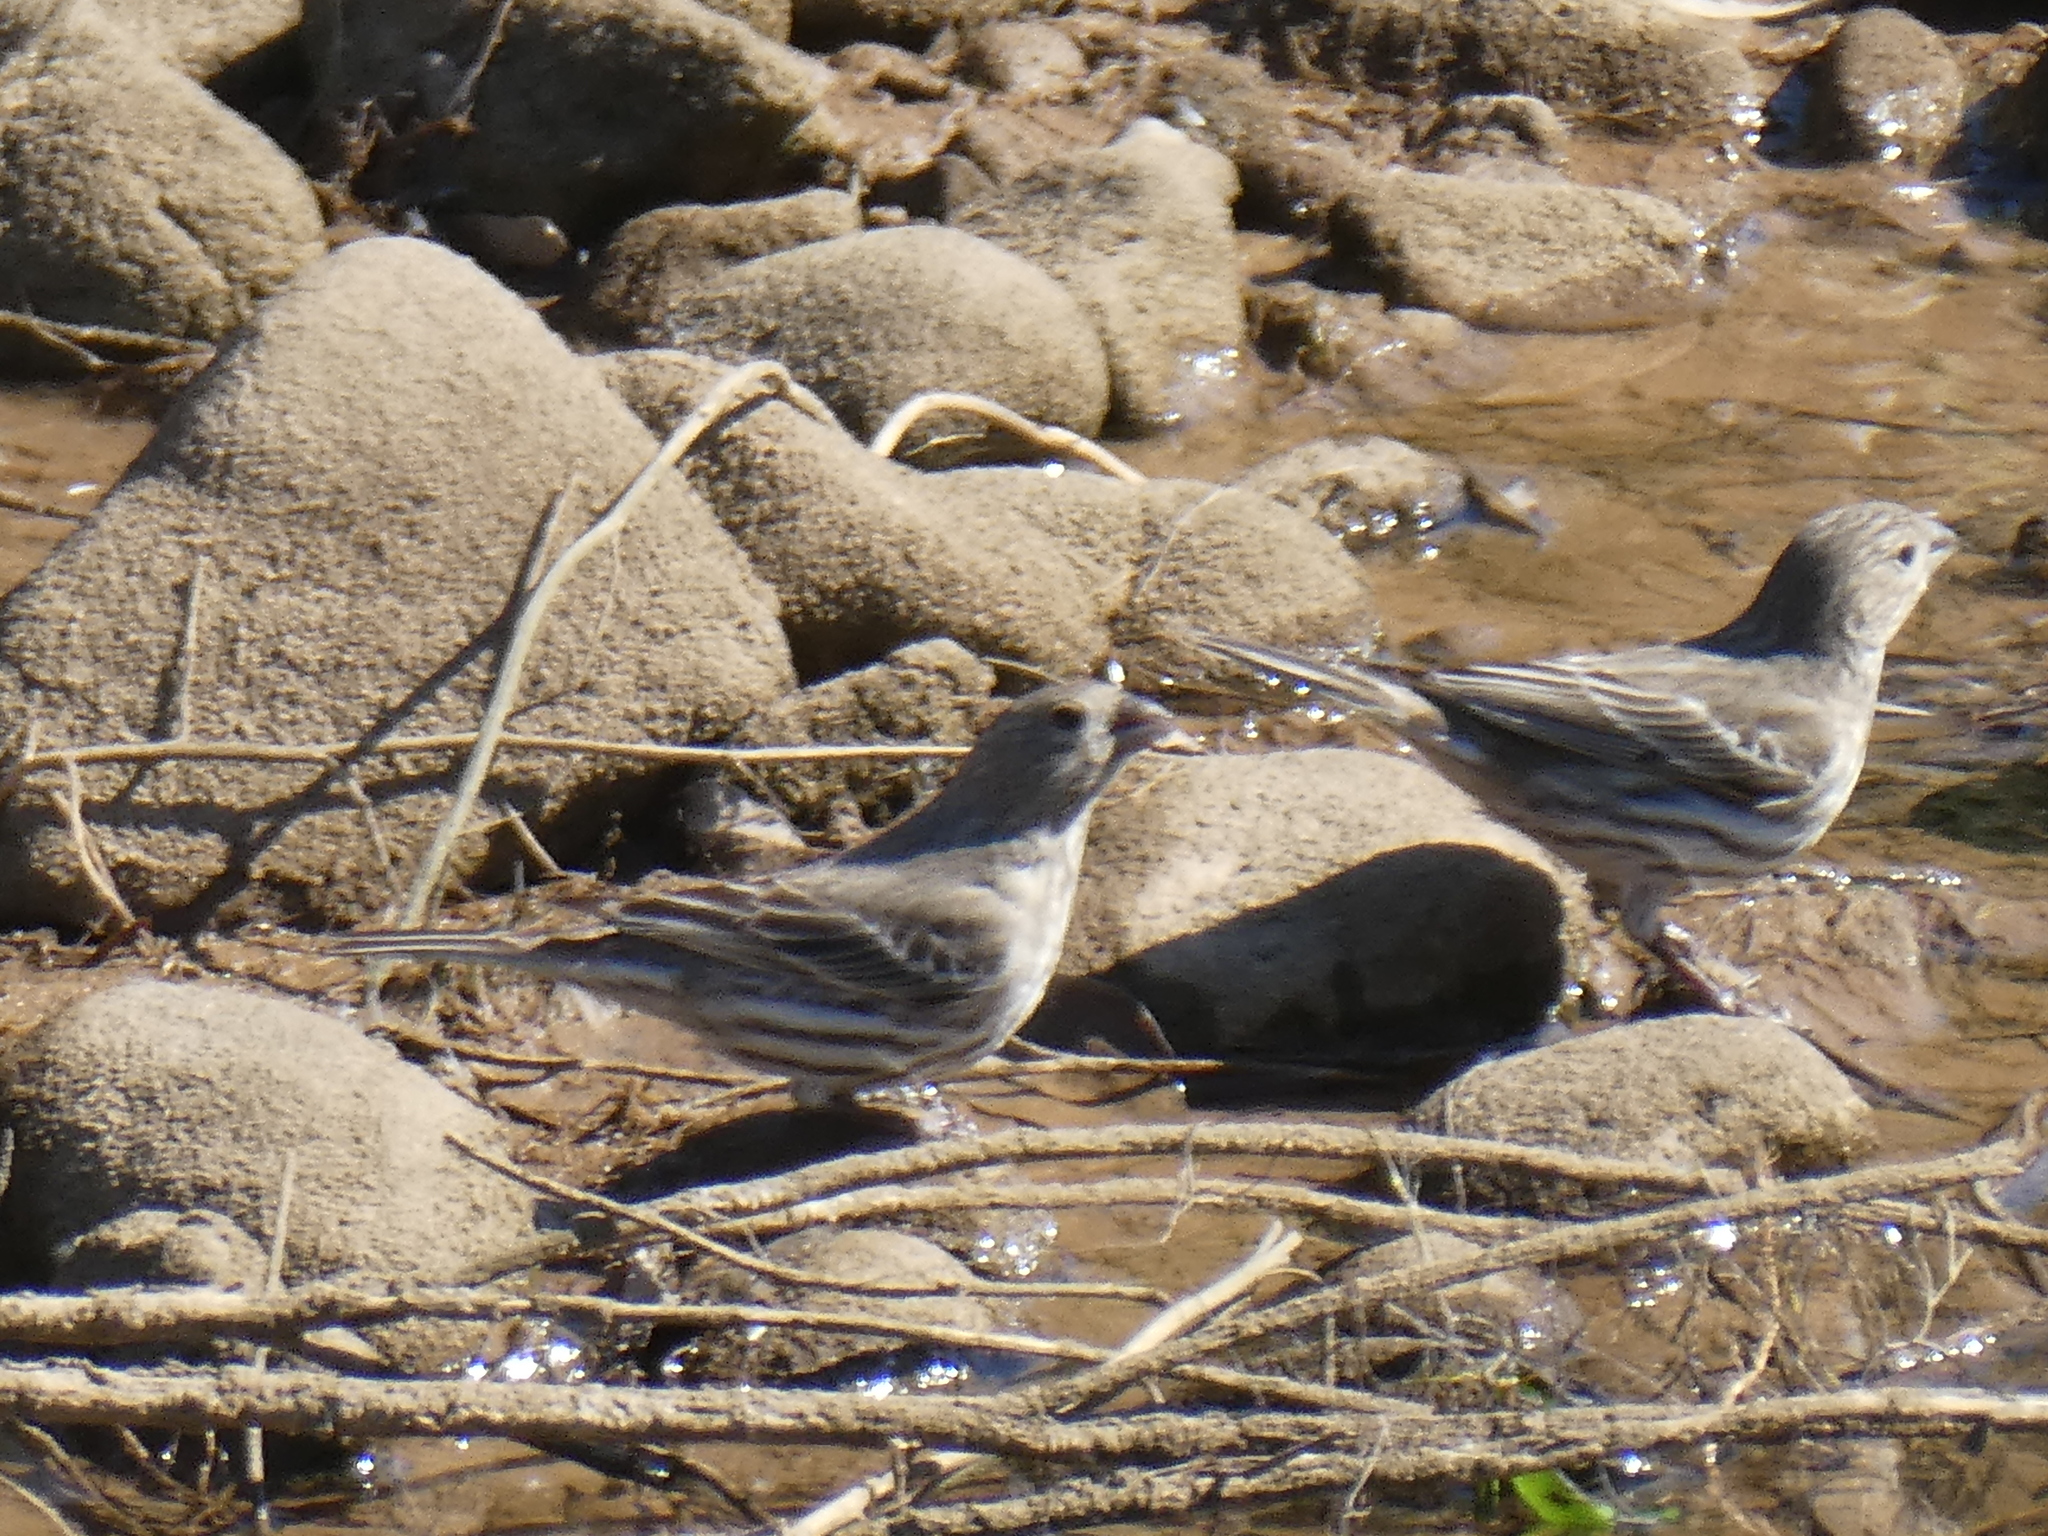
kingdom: Animalia
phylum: Chordata
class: Aves
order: Passeriformes
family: Fringillidae
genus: Haemorhous
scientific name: Haemorhous mexicanus
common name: House finch
